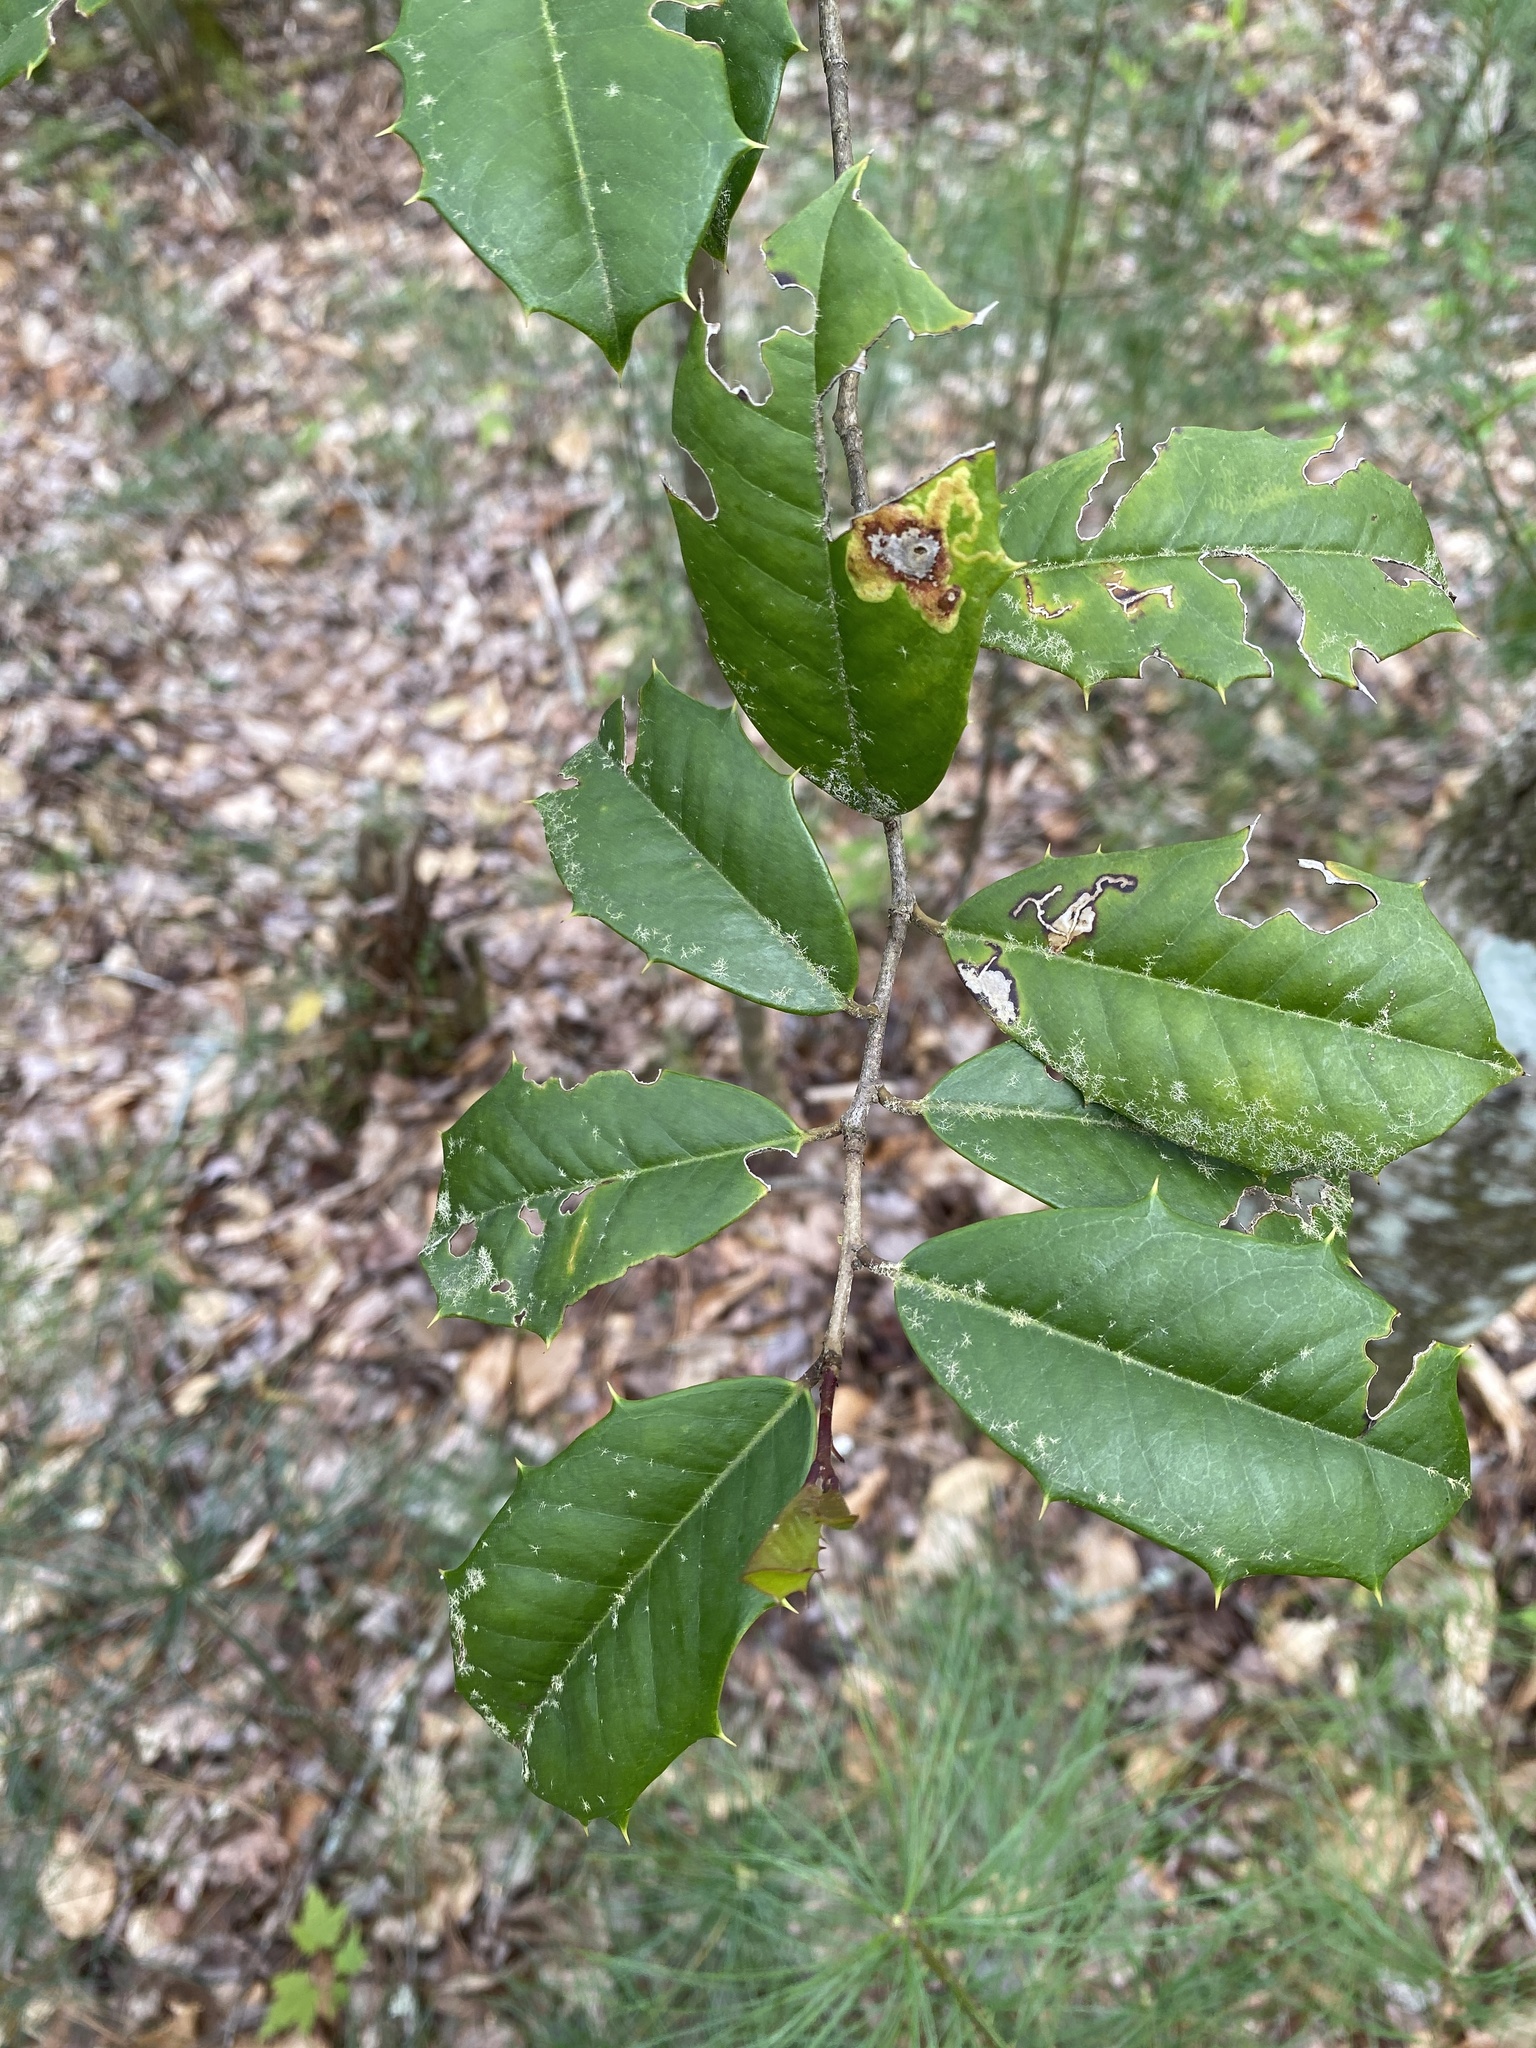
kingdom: Plantae
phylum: Tracheophyta
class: Magnoliopsida
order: Aquifoliales
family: Aquifoliaceae
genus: Ilex
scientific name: Ilex opaca
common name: American holly
